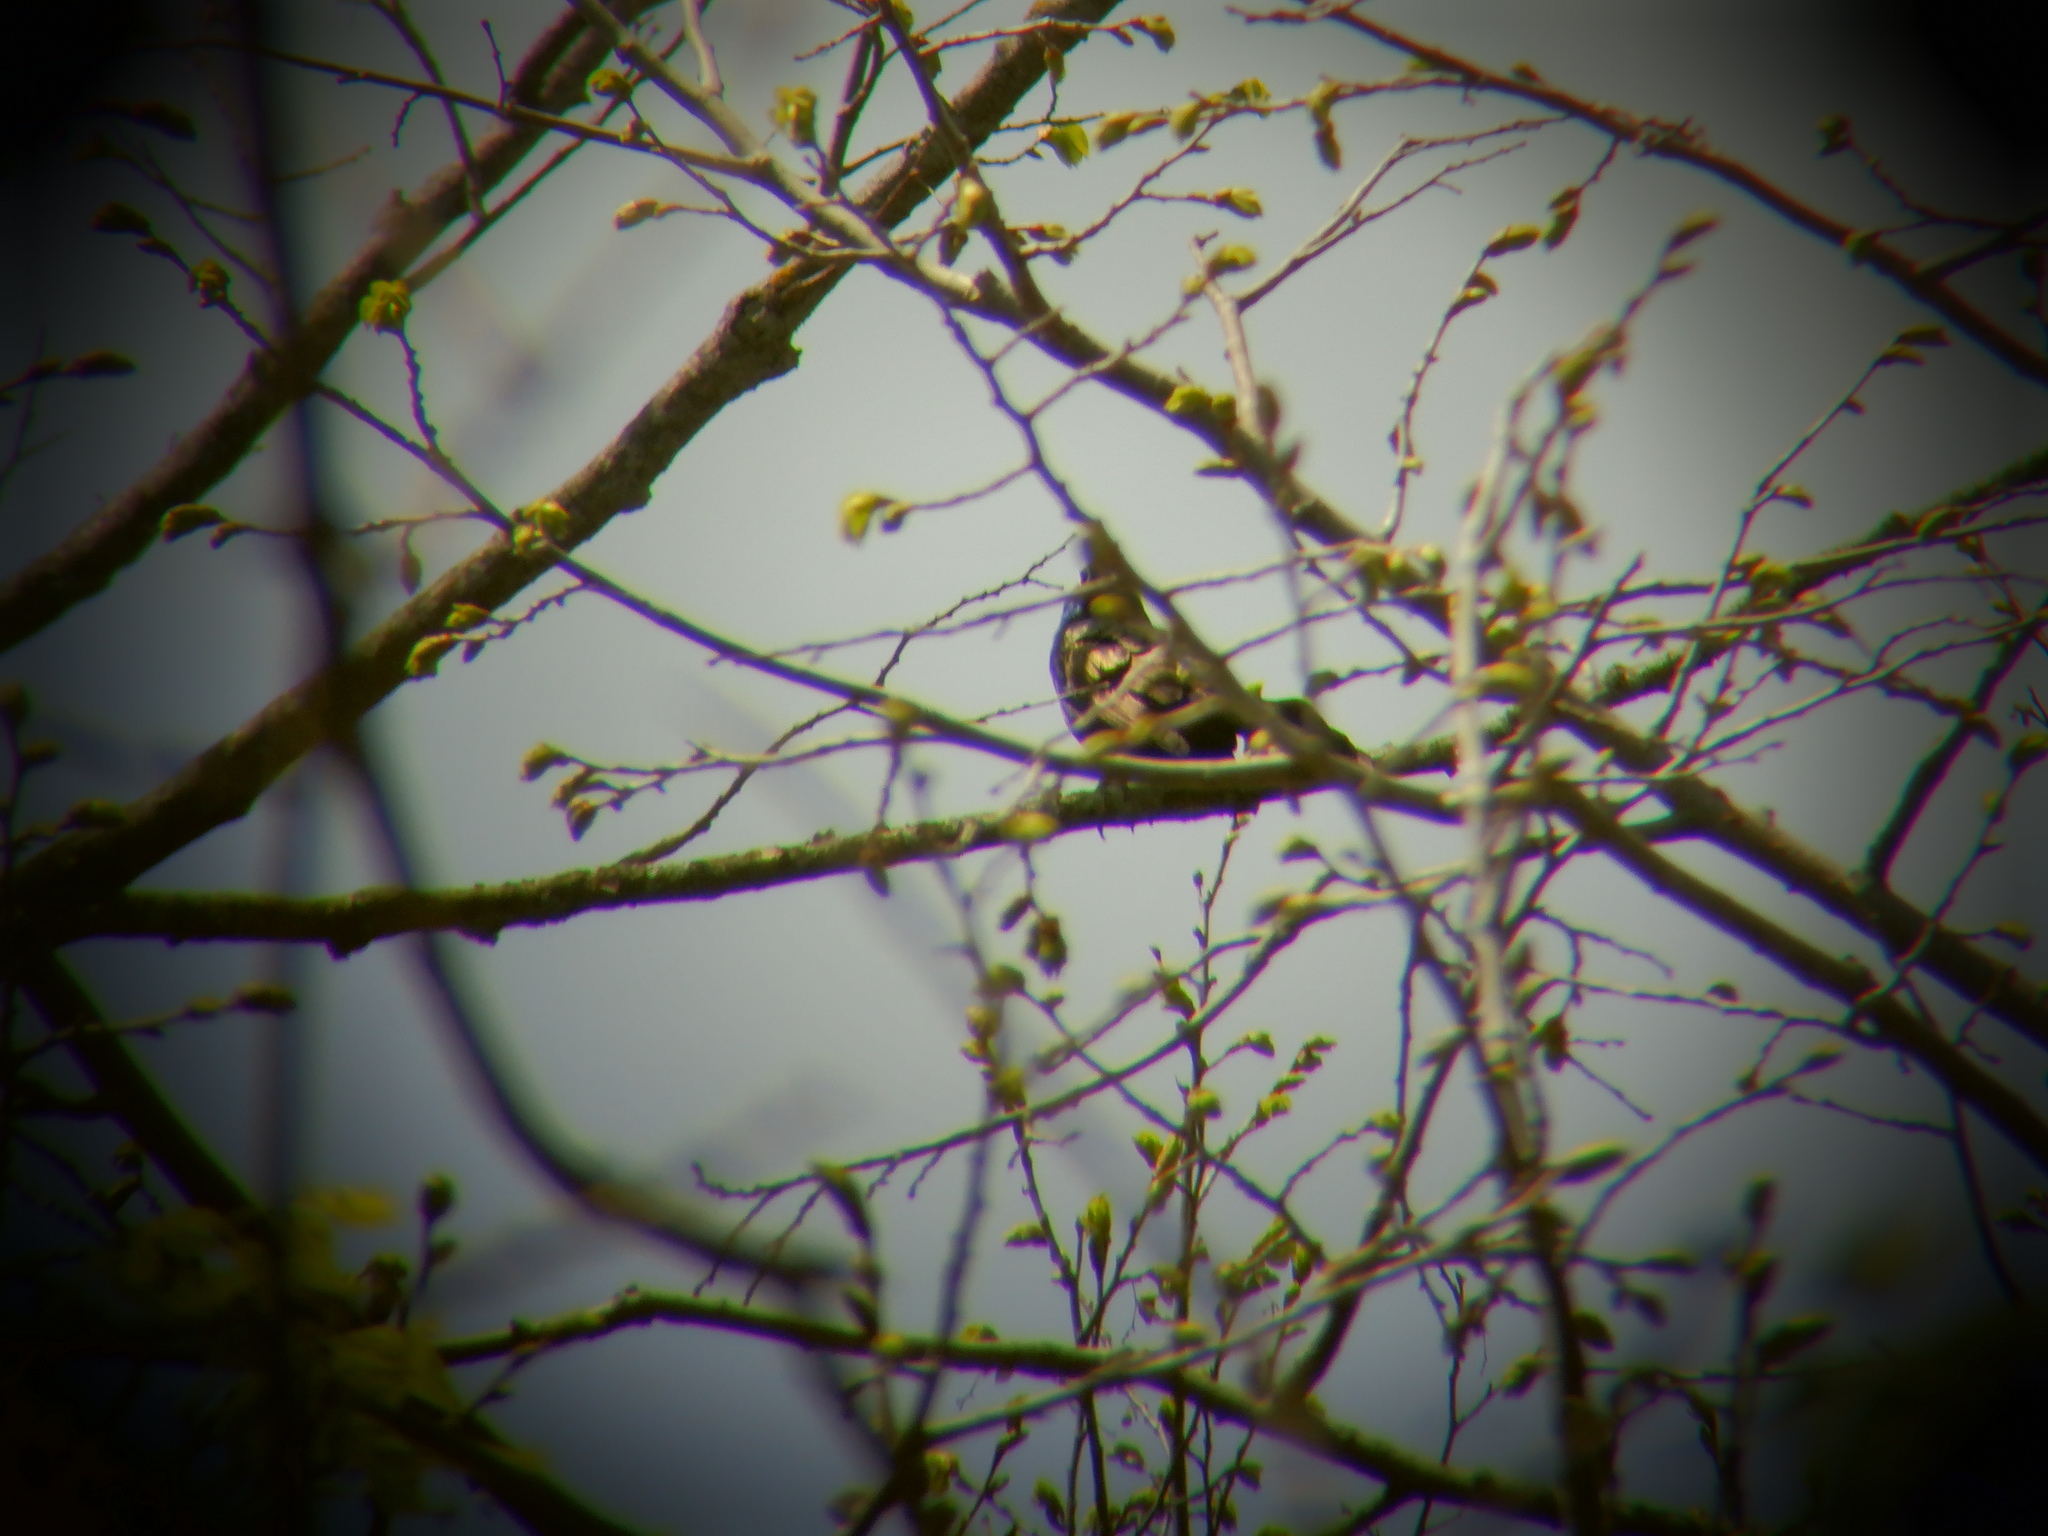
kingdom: Animalia
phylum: Chordata
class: Aves
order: Passeriformes
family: Sturnidae
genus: Sturnus
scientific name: Sturnus vulgaris
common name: Common starling
